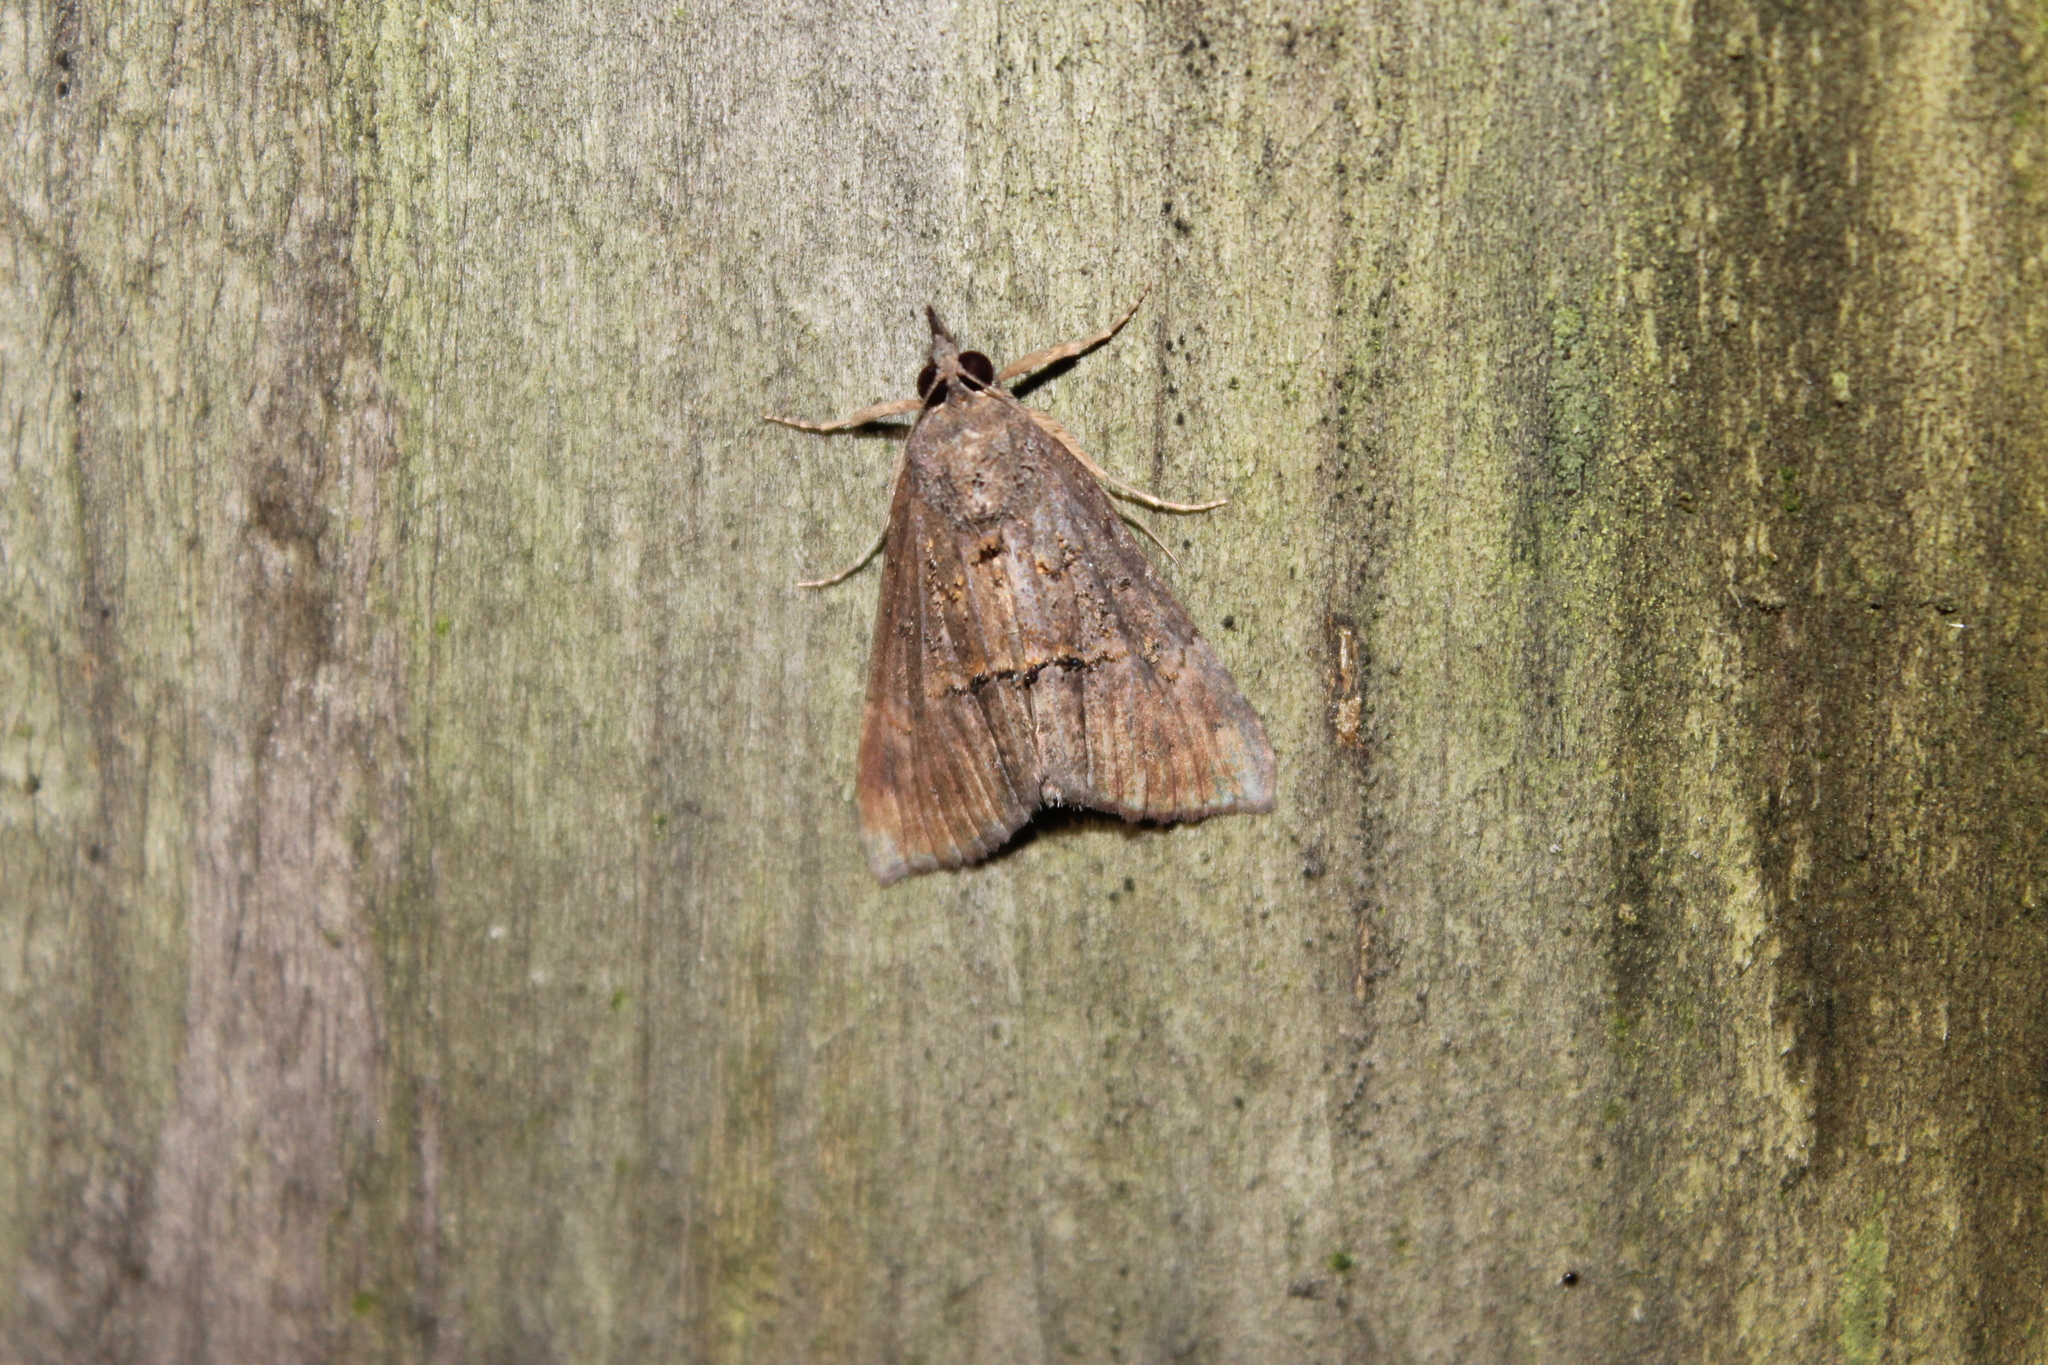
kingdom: Animalia
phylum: Arthropoda
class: Insecta
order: Lepidoptera
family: Erebidae
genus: Hypena
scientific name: Hypena scabra
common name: Green cloverworm
